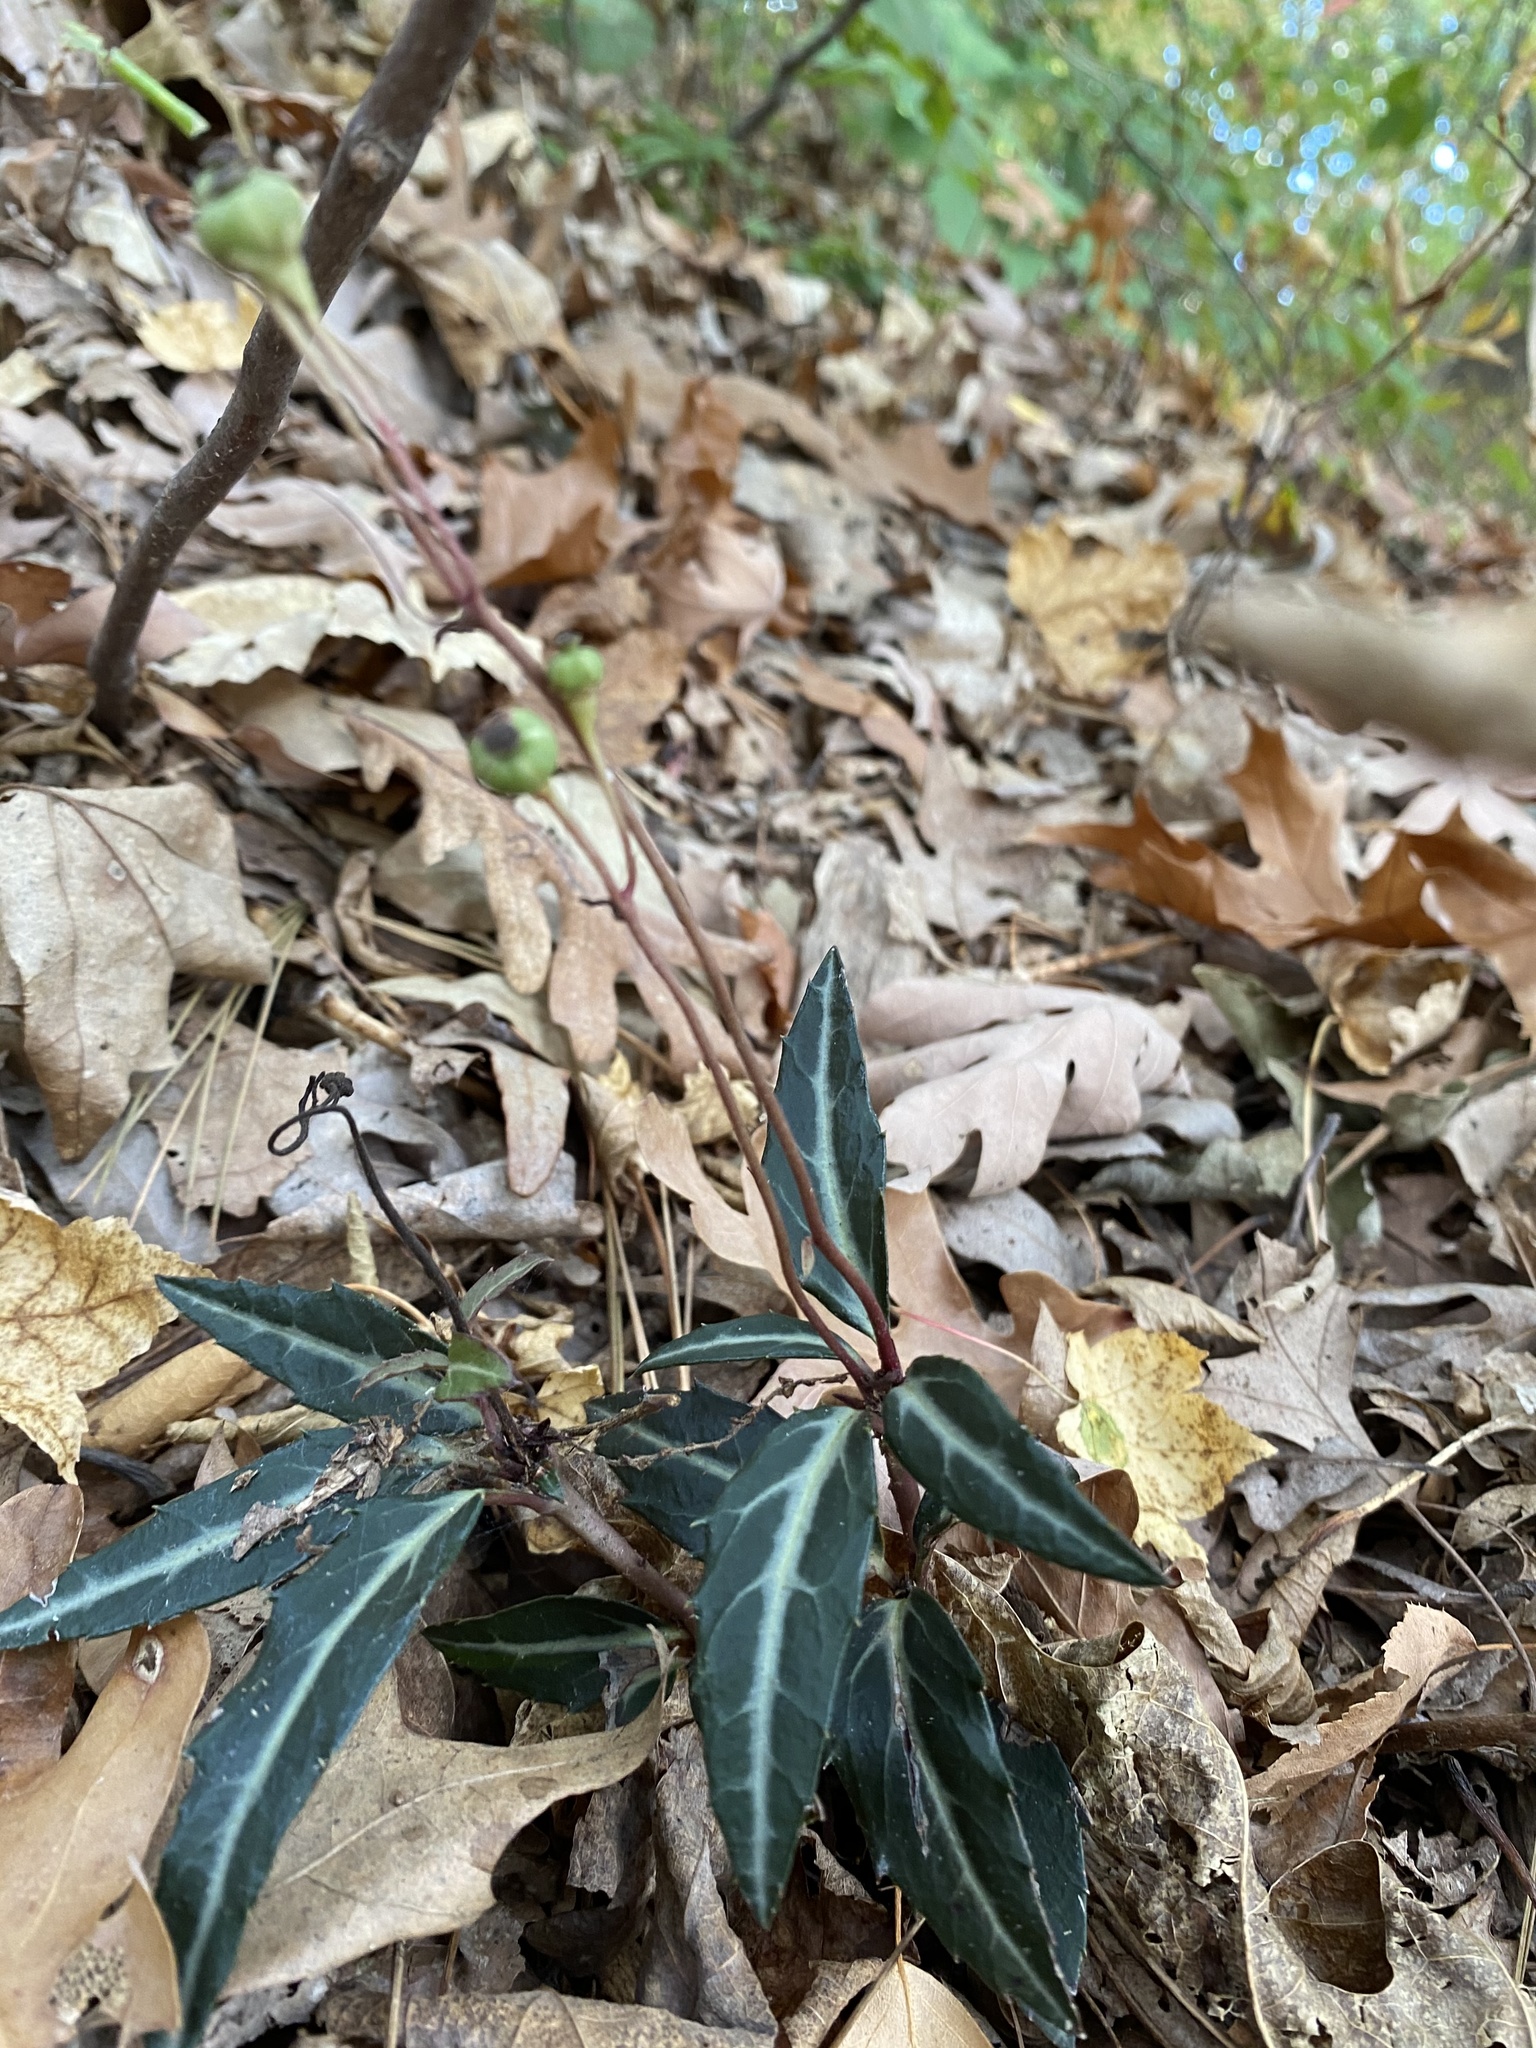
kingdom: Plantae
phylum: Tracheophyta
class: Magnoliopsida
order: Ericales
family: Ericaceae
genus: Chimaphila
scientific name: Chimaphila maculata
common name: Spotted pipsissewa
